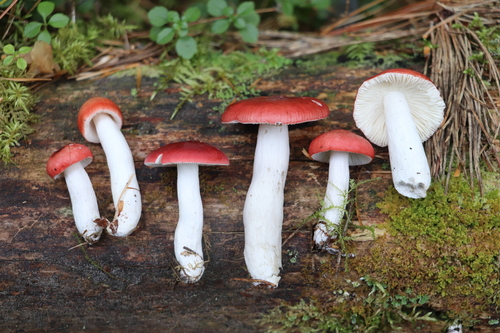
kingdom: Fungi
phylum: Basidiomycota
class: Agaricomycetes
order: Russulales
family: Russulaceae
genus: Russula
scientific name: Russula hydrophila
